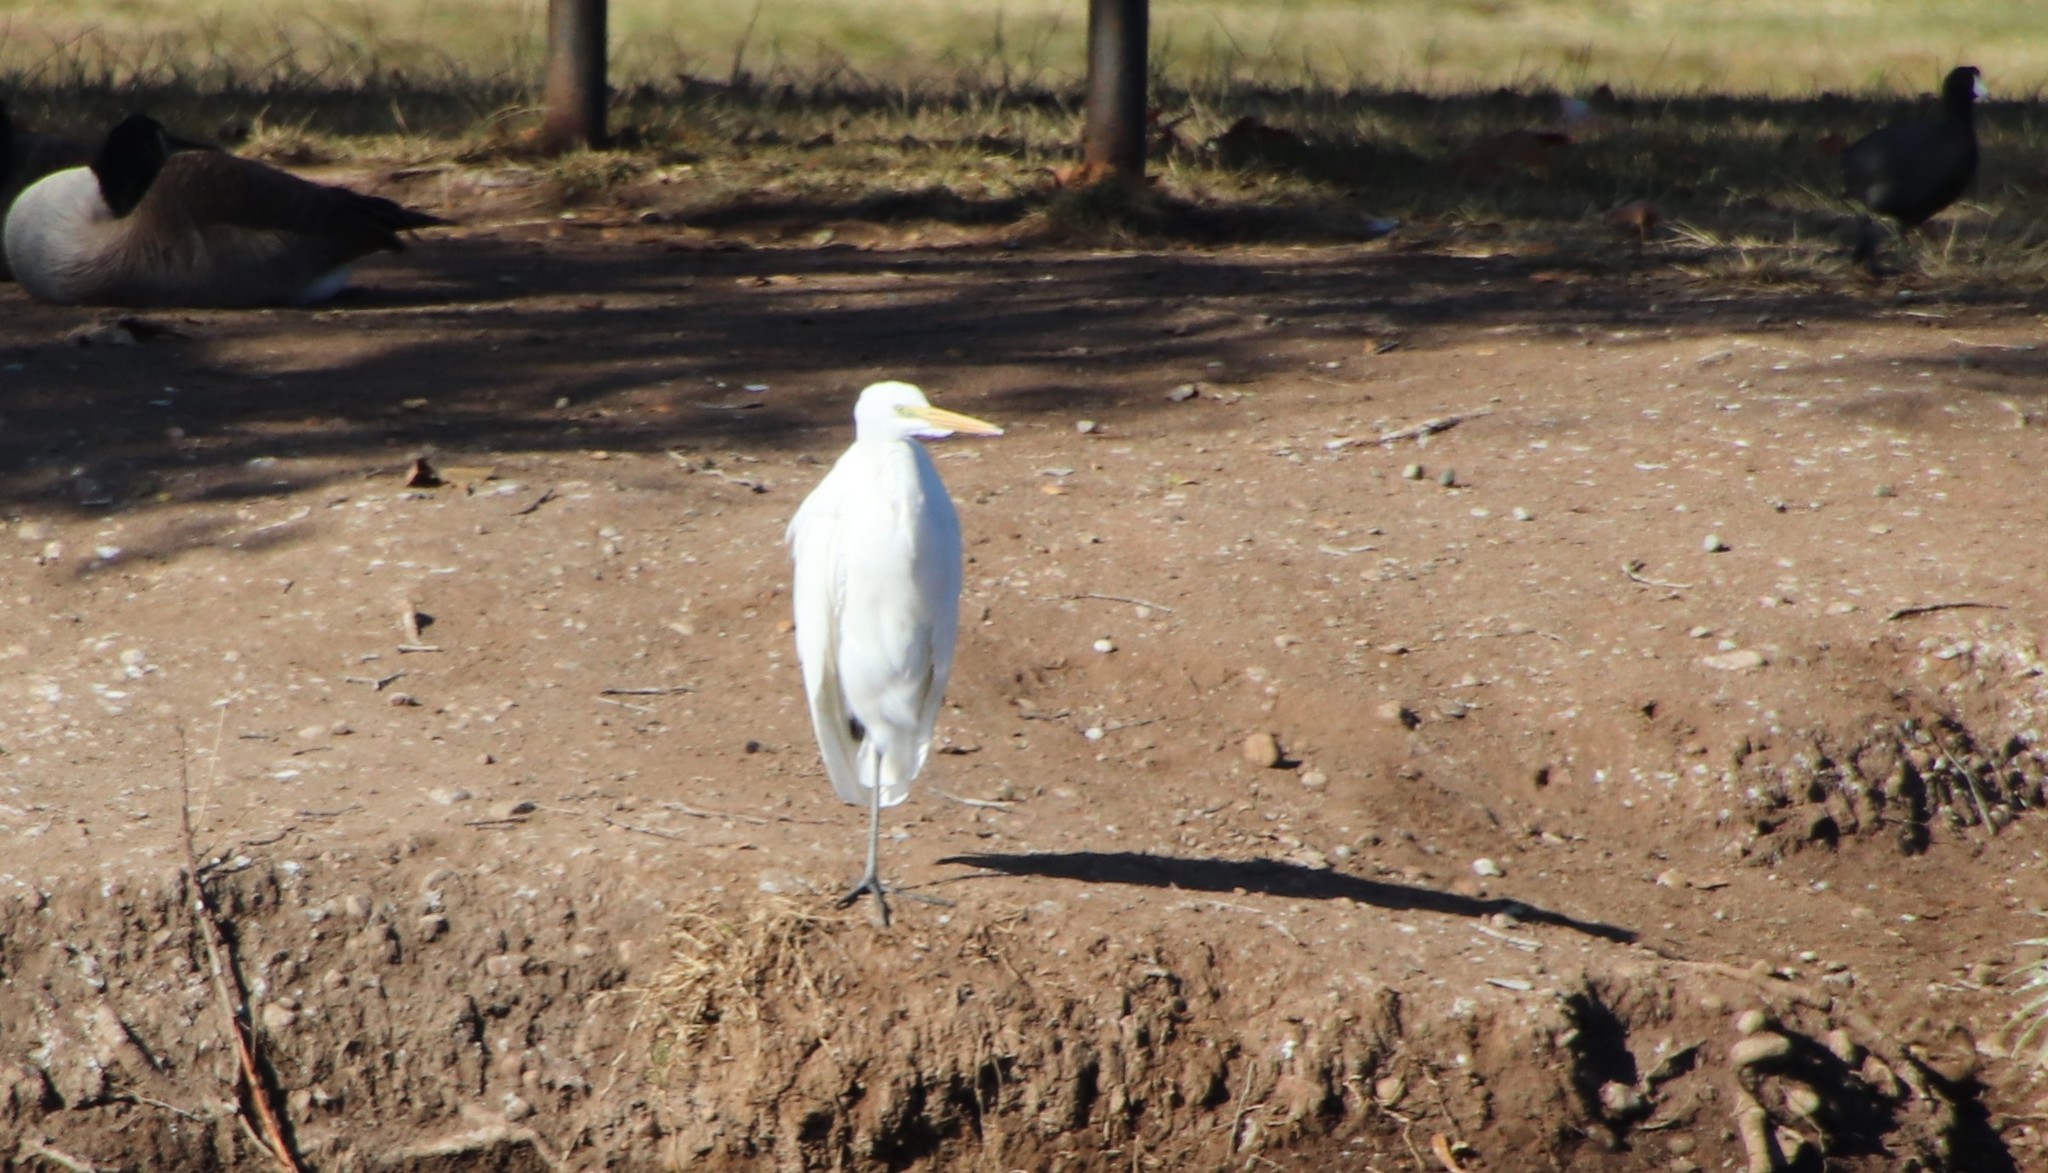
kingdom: Animalia
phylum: Chordata
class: Aves
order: Pelecaniformes
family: Ardeidae
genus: Ardea
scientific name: Ardea alba
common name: Great egret
